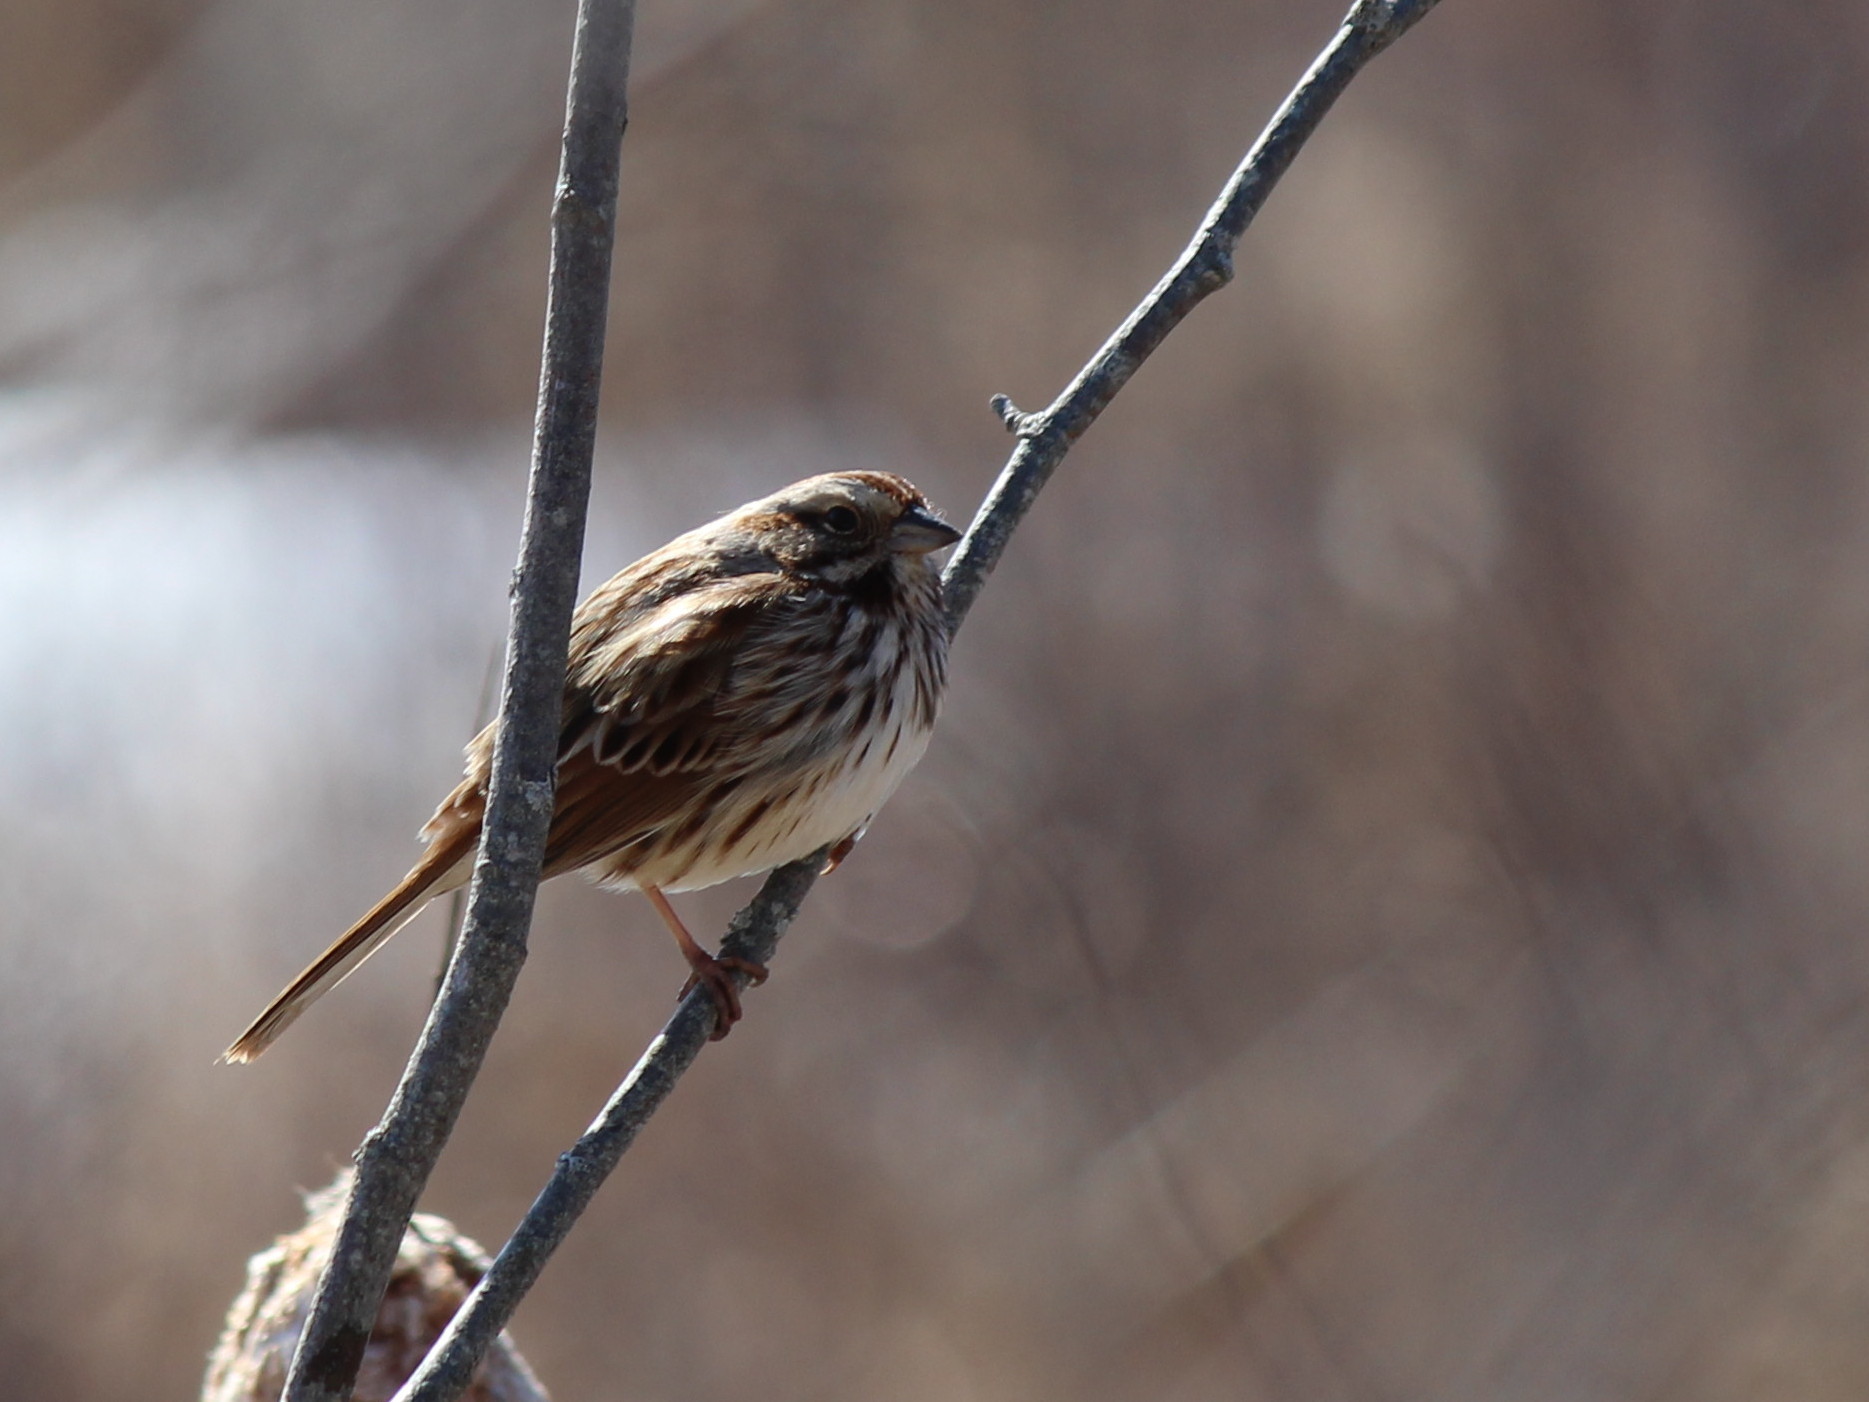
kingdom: Animalia
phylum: Chordata
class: Aves
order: Passeriformes
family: Passerellidae
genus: Melospiza
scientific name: Melospiza melodia
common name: Song sparrow
